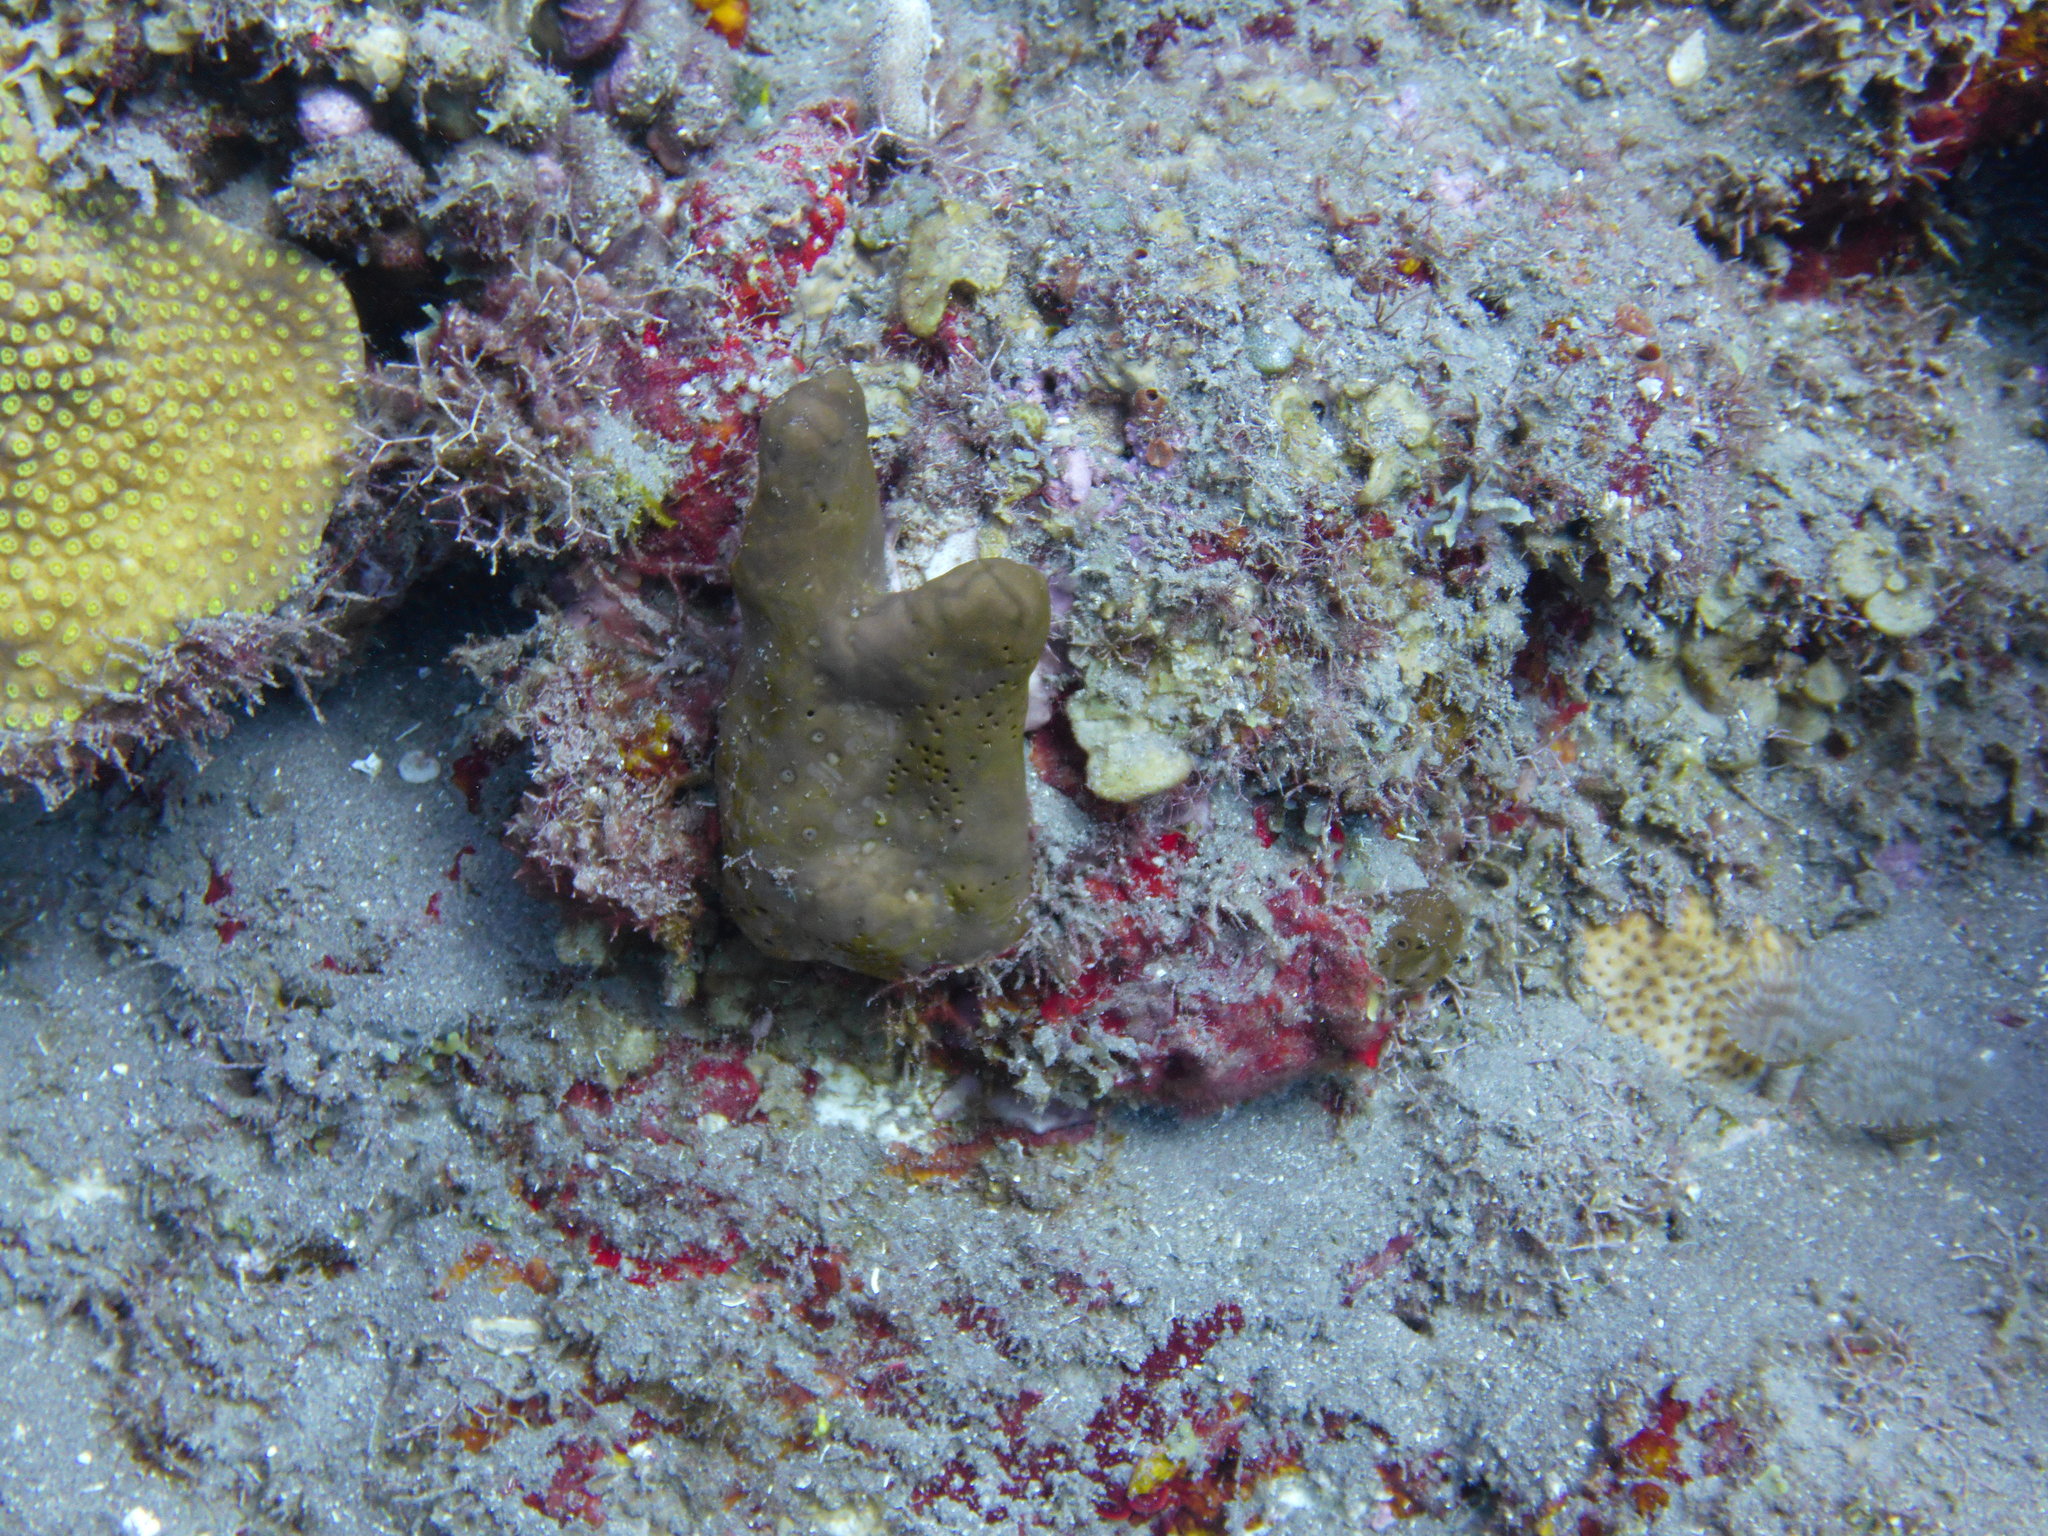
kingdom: Animalia
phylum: Porifera
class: Demospongiae
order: Agelasida
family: Agelasidae
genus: Agelas
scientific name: Agelas dispar
